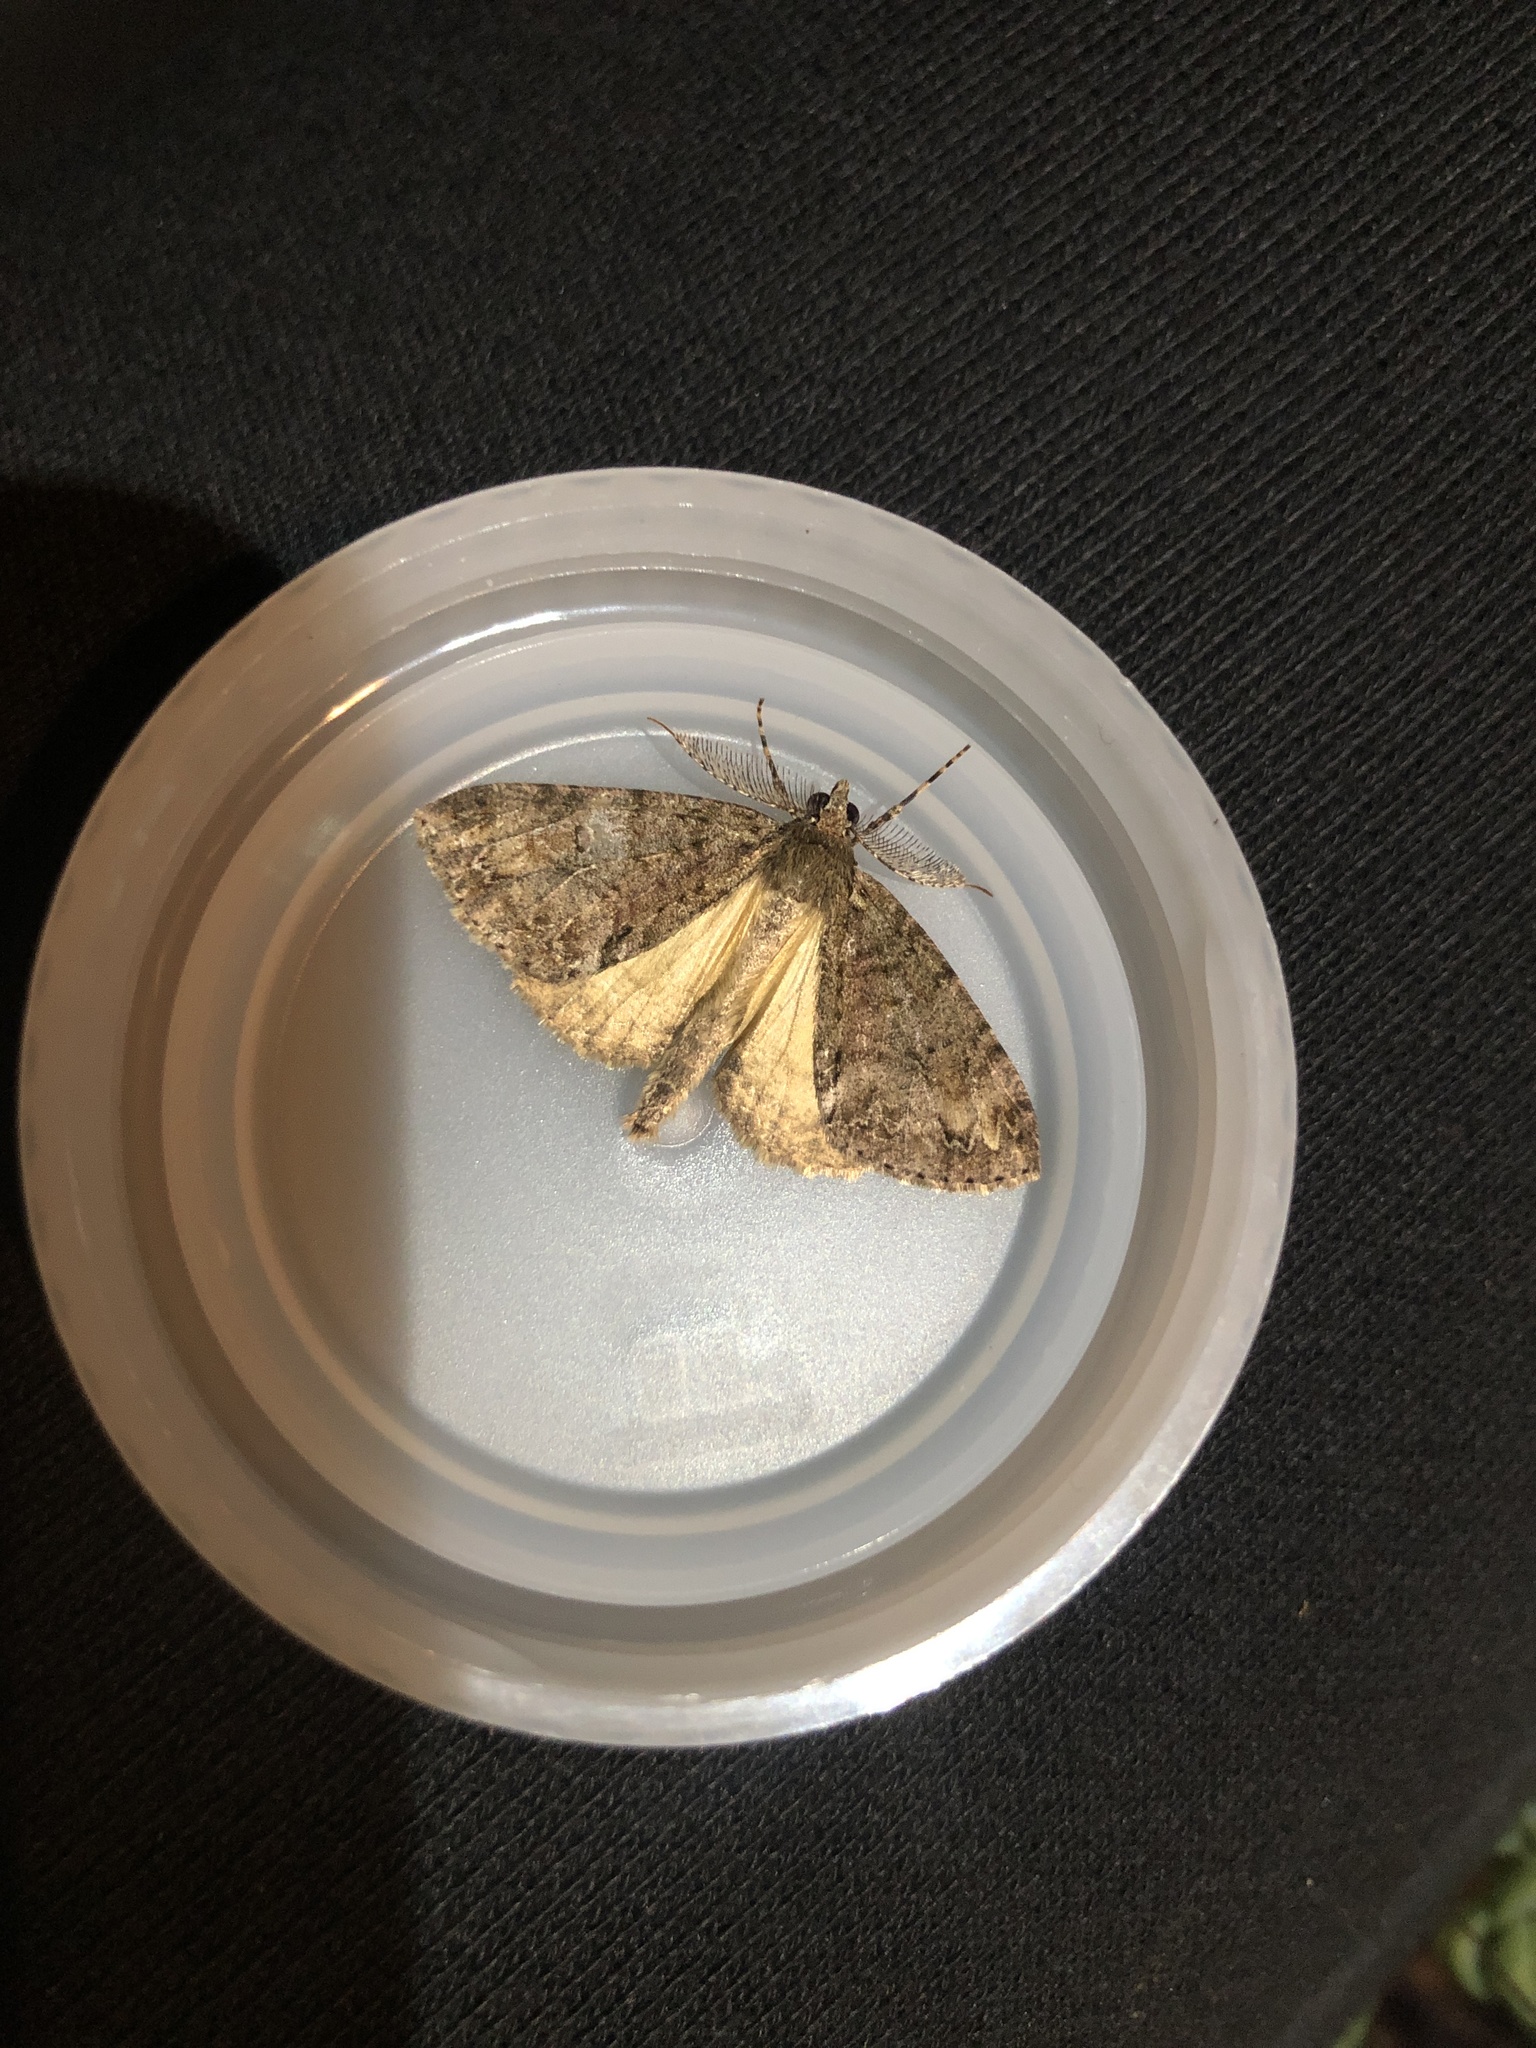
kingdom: Animalia
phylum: Arthropoda
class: Insecta
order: Lepidoptera
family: Geometridae
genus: Pseudocoremia
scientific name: Pseudocoremia suavis
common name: Common forest looper
